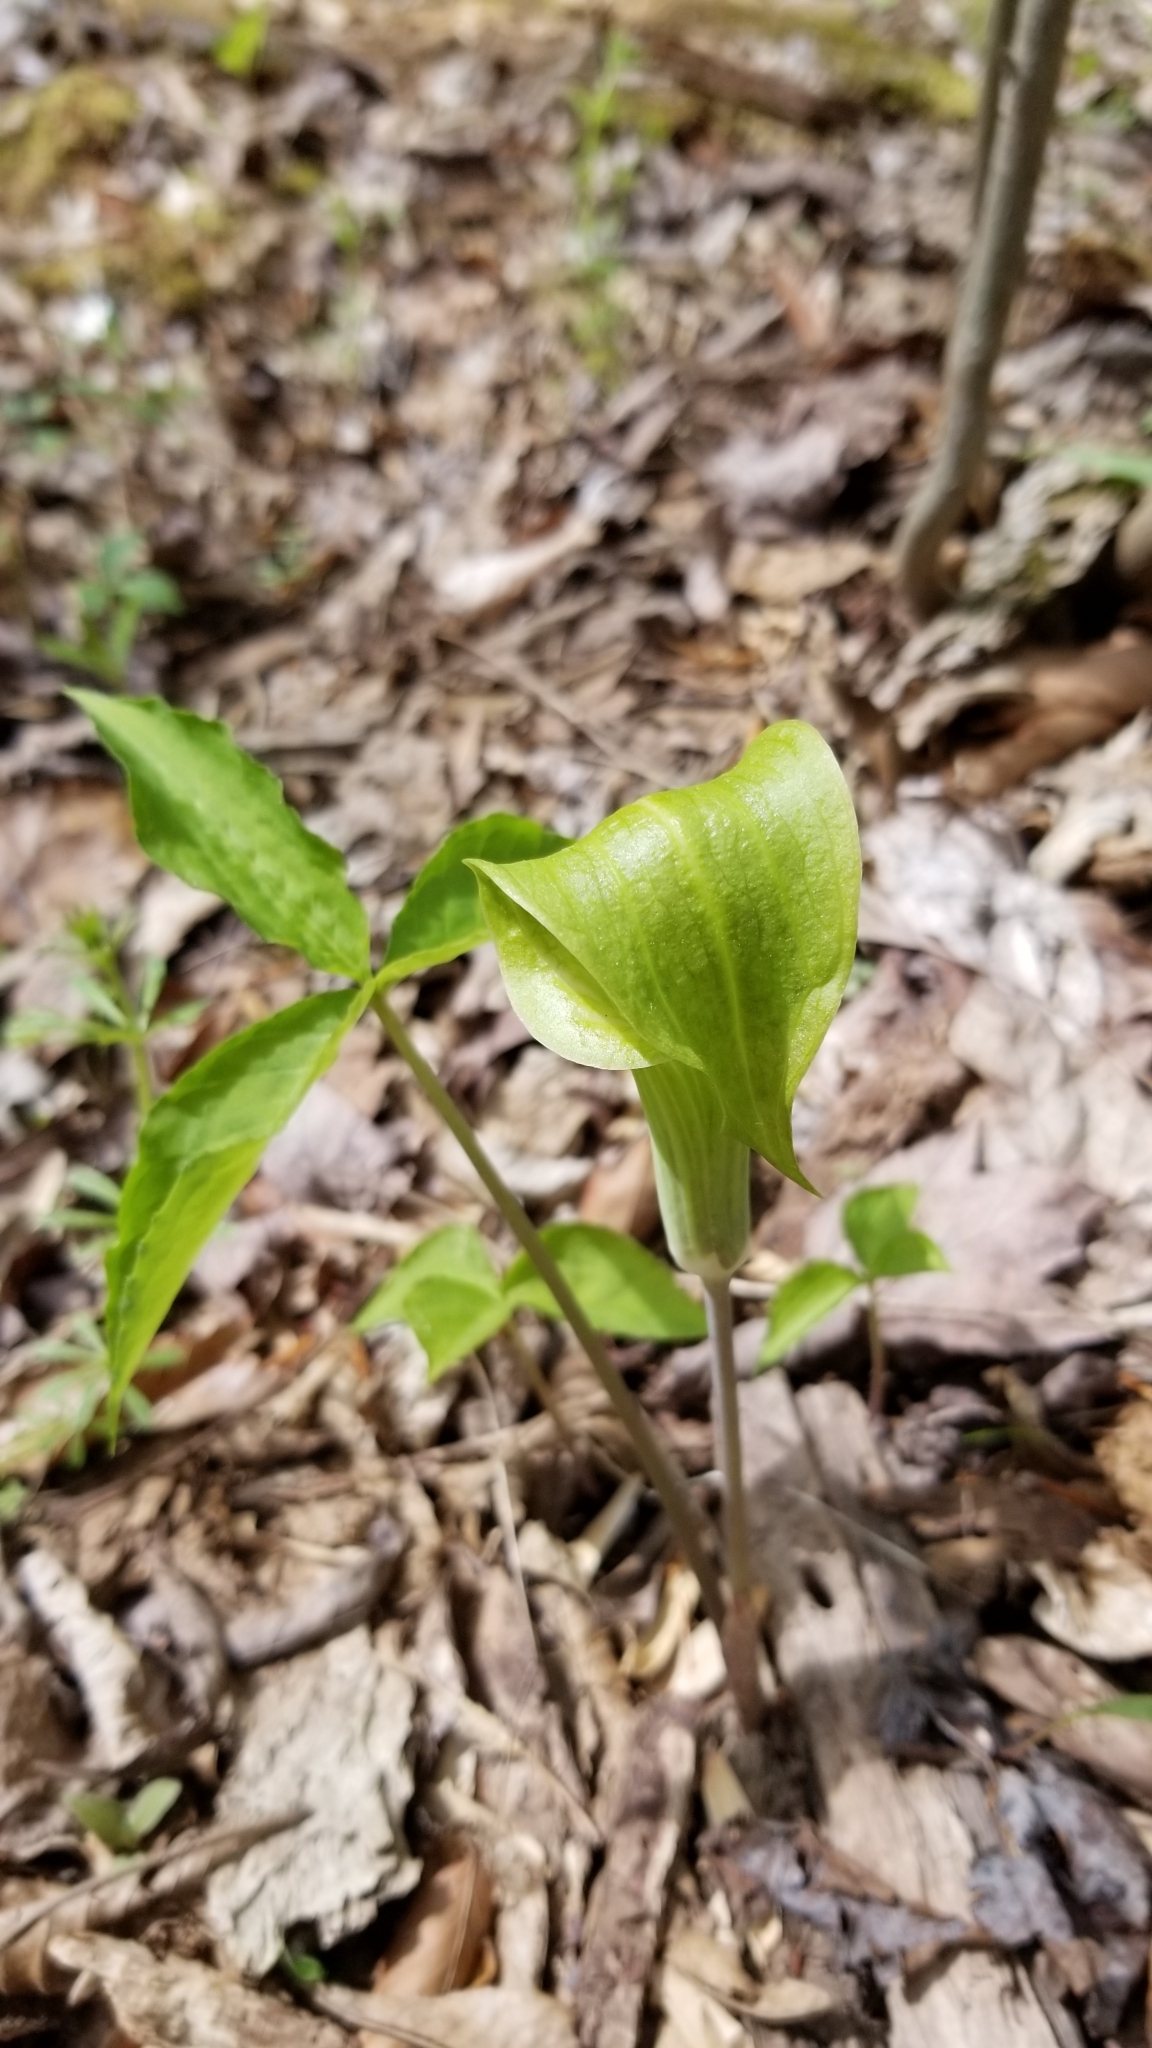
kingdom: Plantae
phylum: Tracheophyta
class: Liliopsida
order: Alismatales
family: Araceae
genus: Arisaema
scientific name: Arisaema triphyllum
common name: Jack-in-the-pulpit
